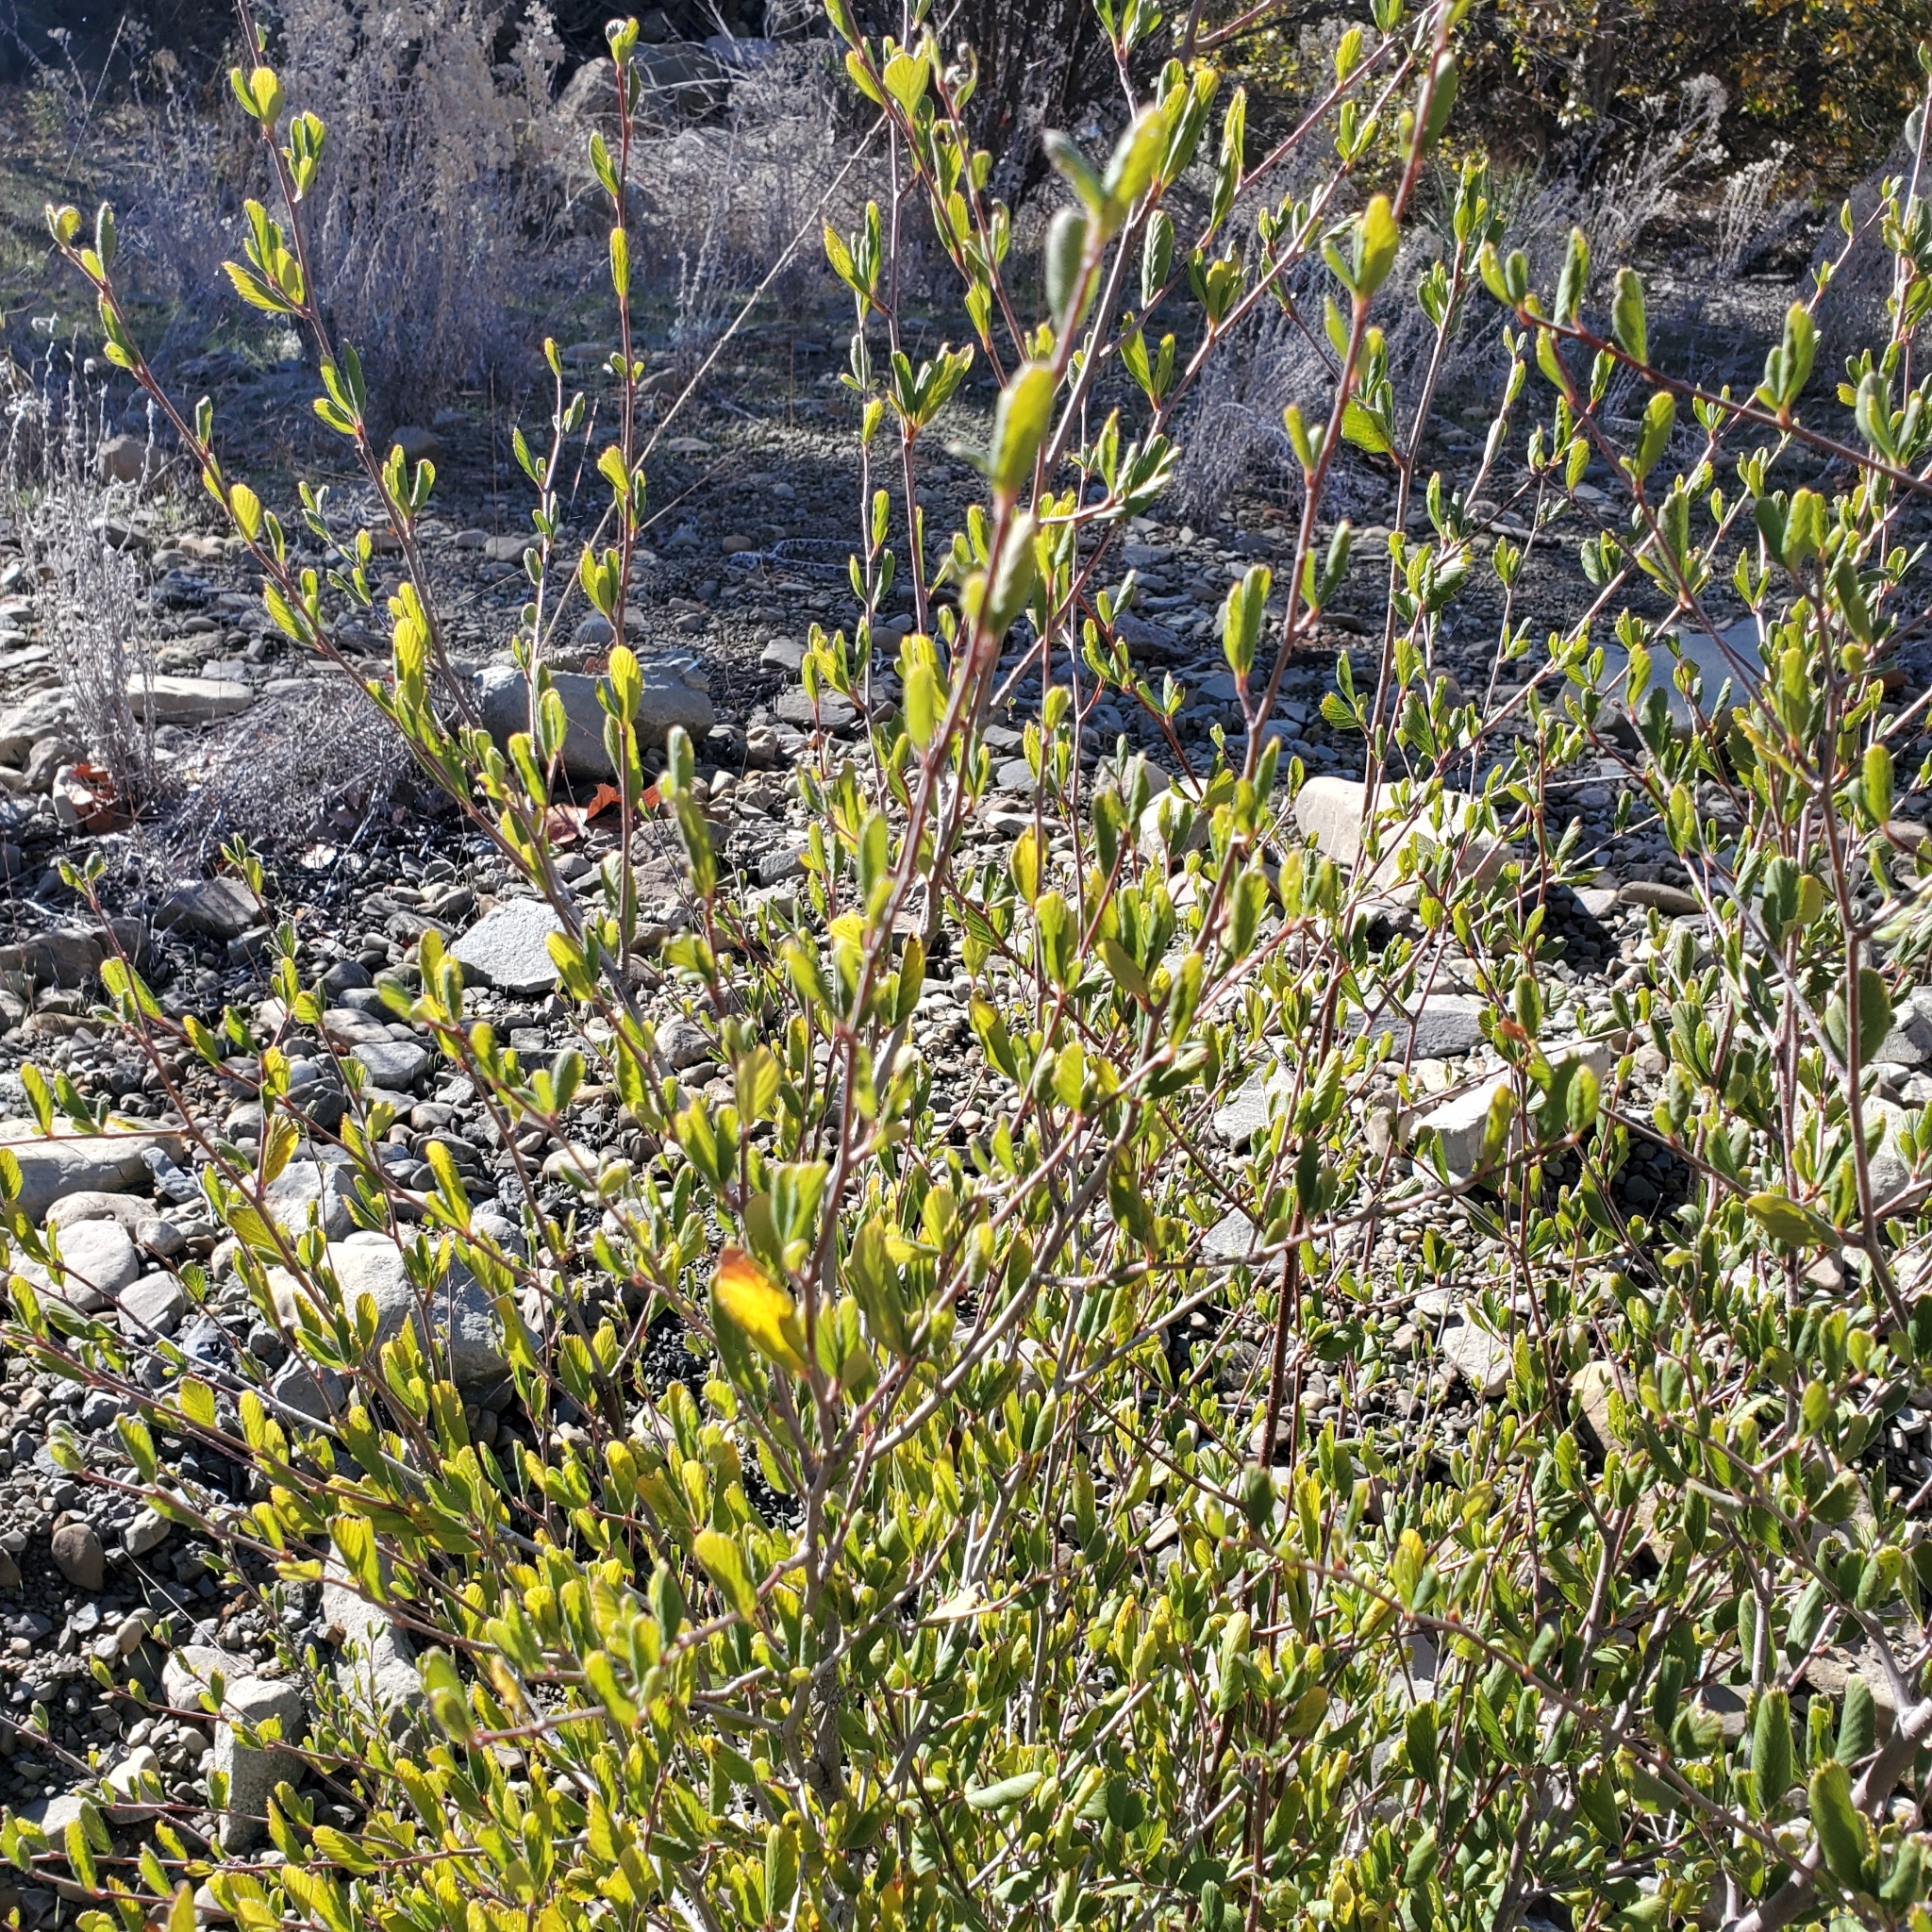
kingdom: Plantae
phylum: Tracheophyta
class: Magnoliopsida
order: Rosales
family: Rosaceae
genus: Cercocarpus
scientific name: Cercocarpus betuloides
